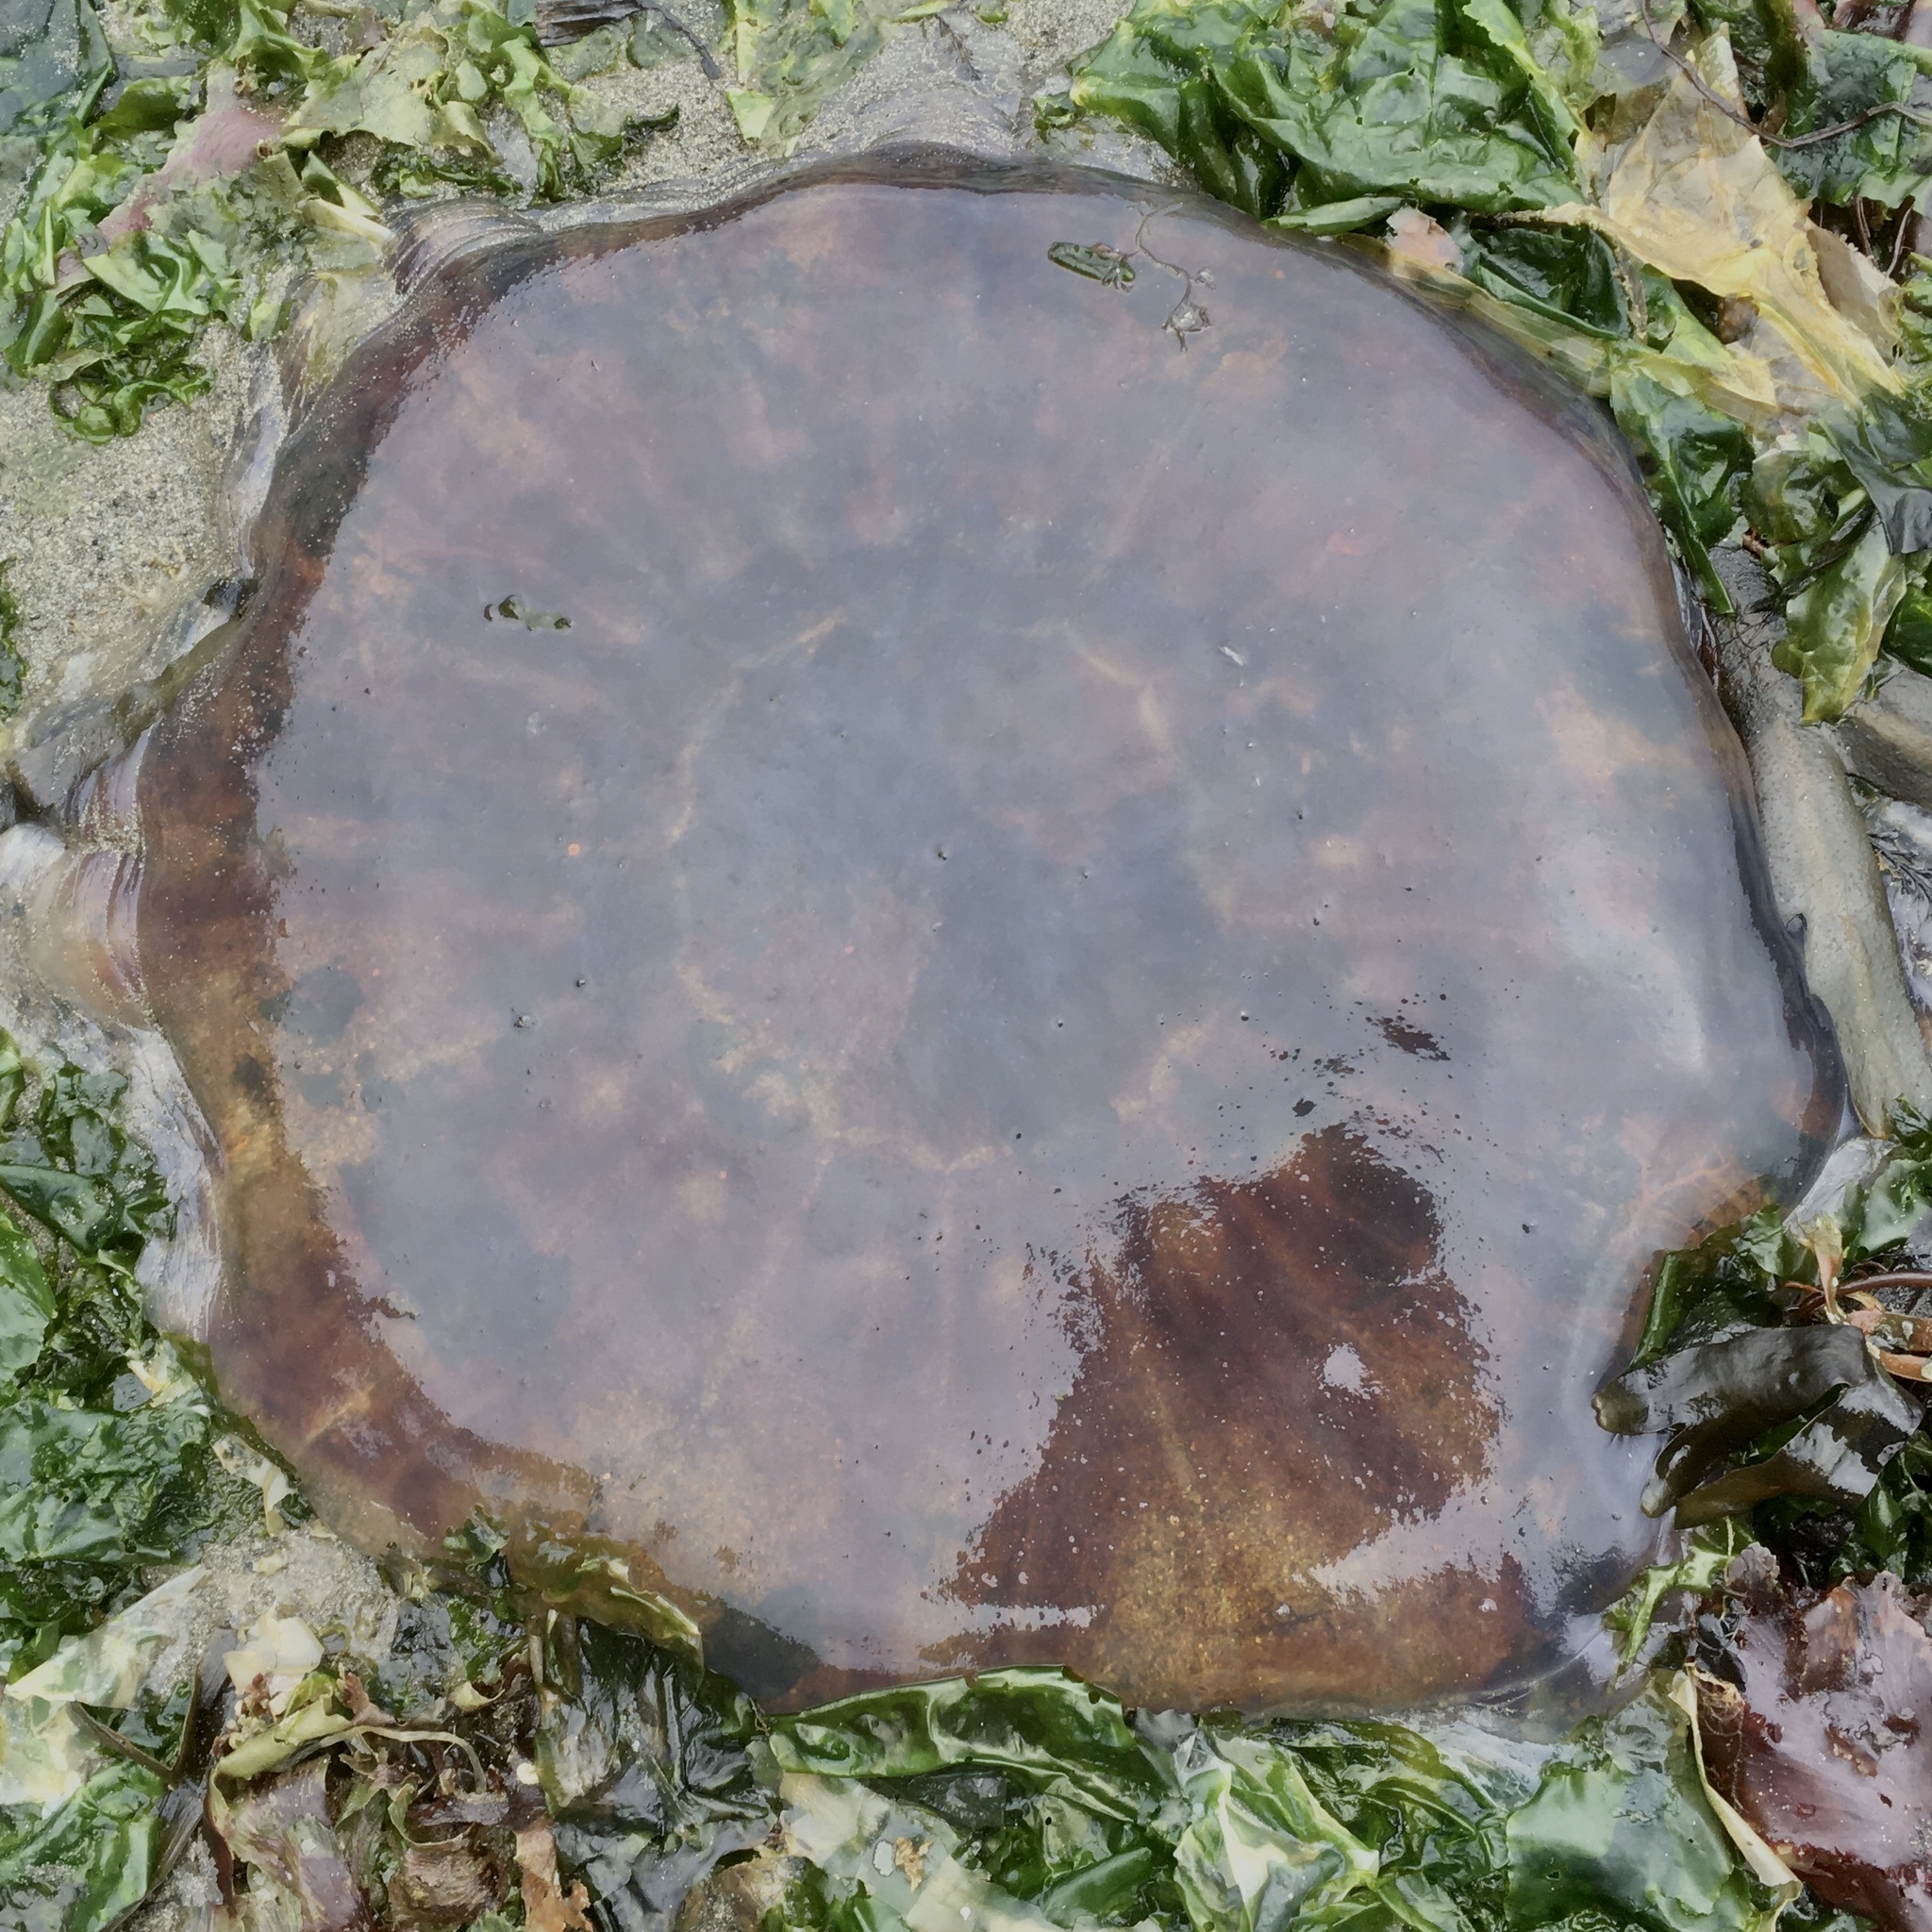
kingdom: Animalia
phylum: Cnidaria
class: Scyphozoa
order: Semaeostomeae
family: Cyaneidae
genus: Cyanea
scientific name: Cyanea ferruginea
